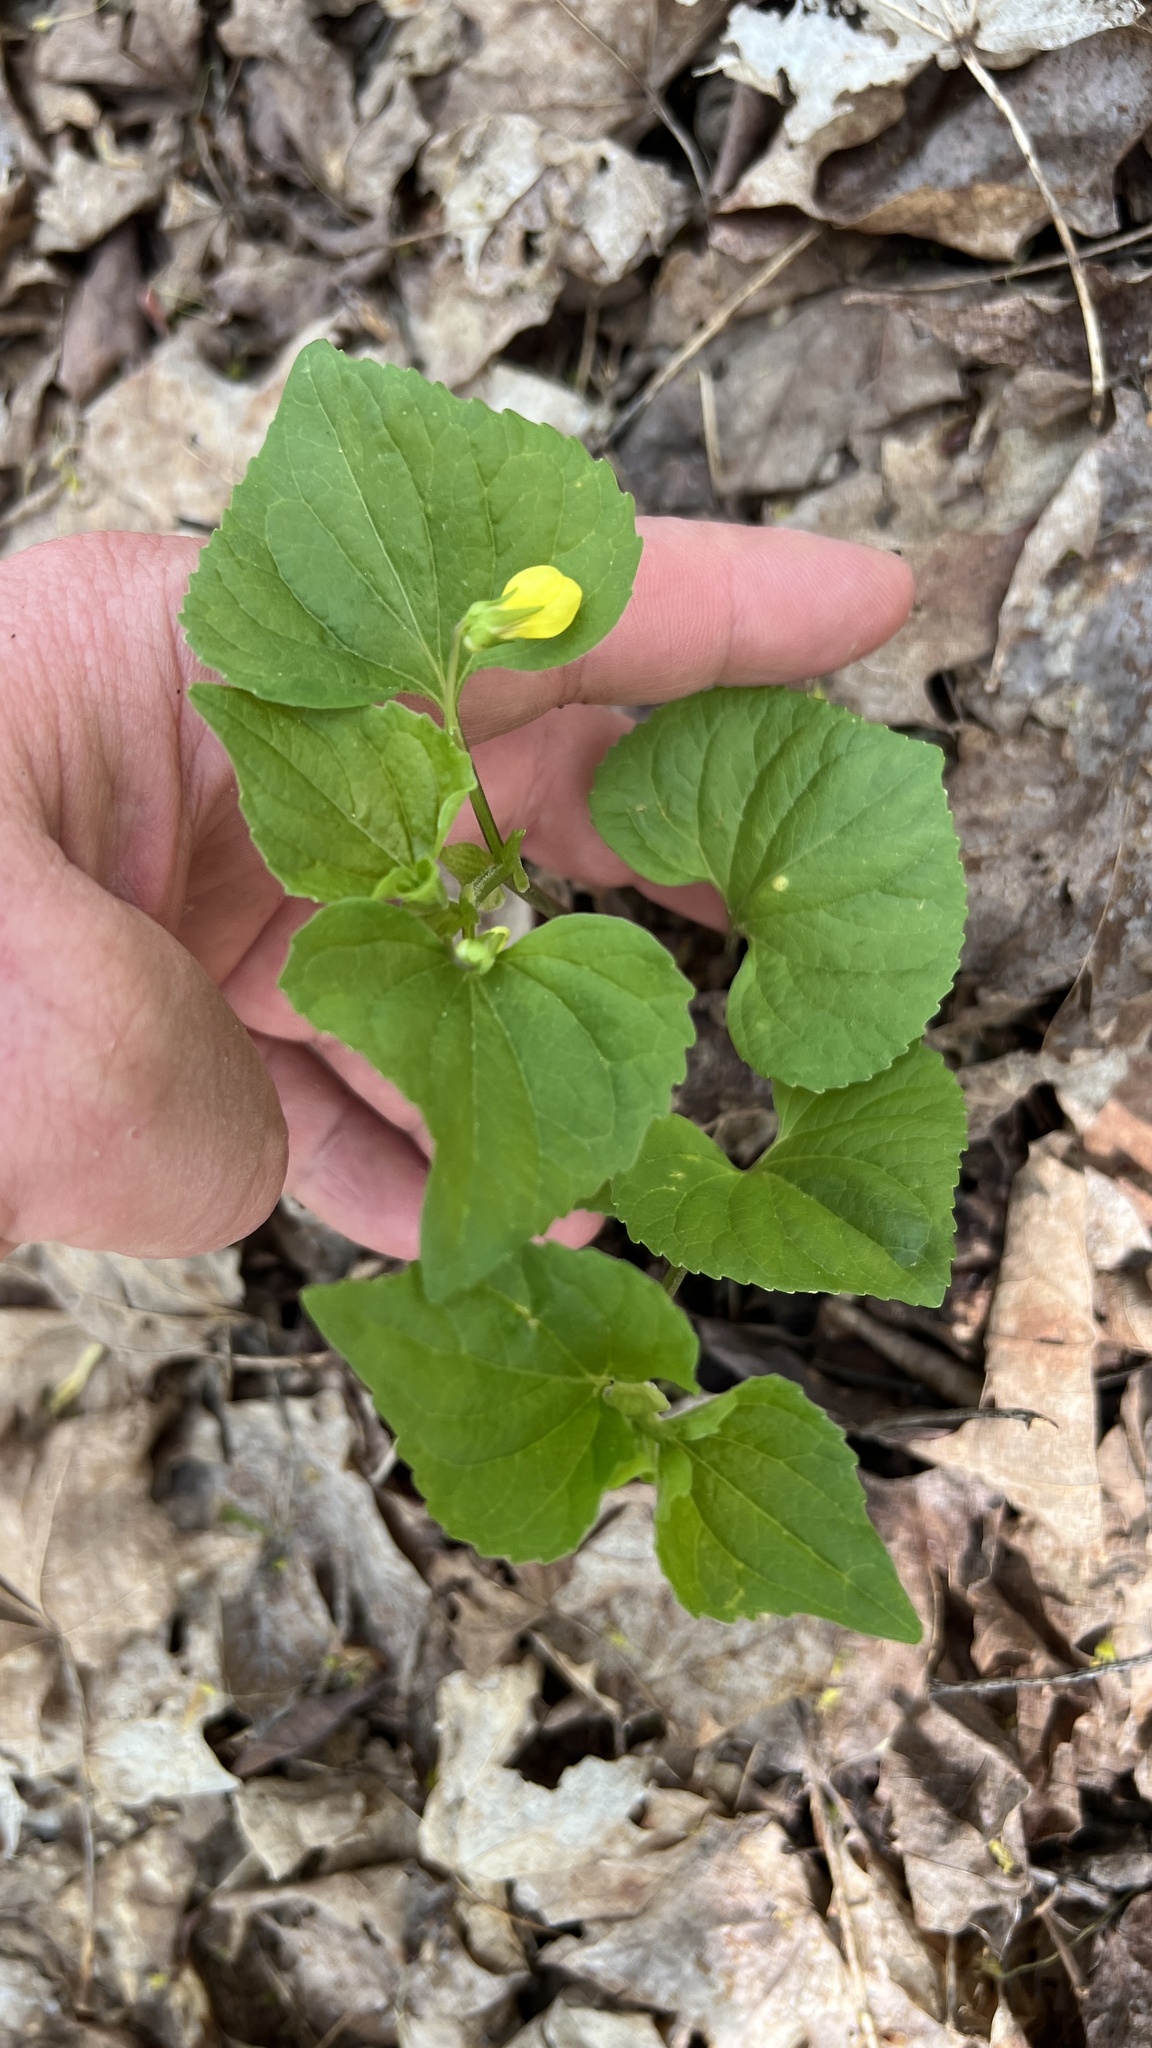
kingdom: Plantae
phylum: Tracheophyta
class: Magnoliopsida
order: Malpighiales
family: Violaceae
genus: Viola
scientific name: Viola eriocarpa
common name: Smooth yellow violet
